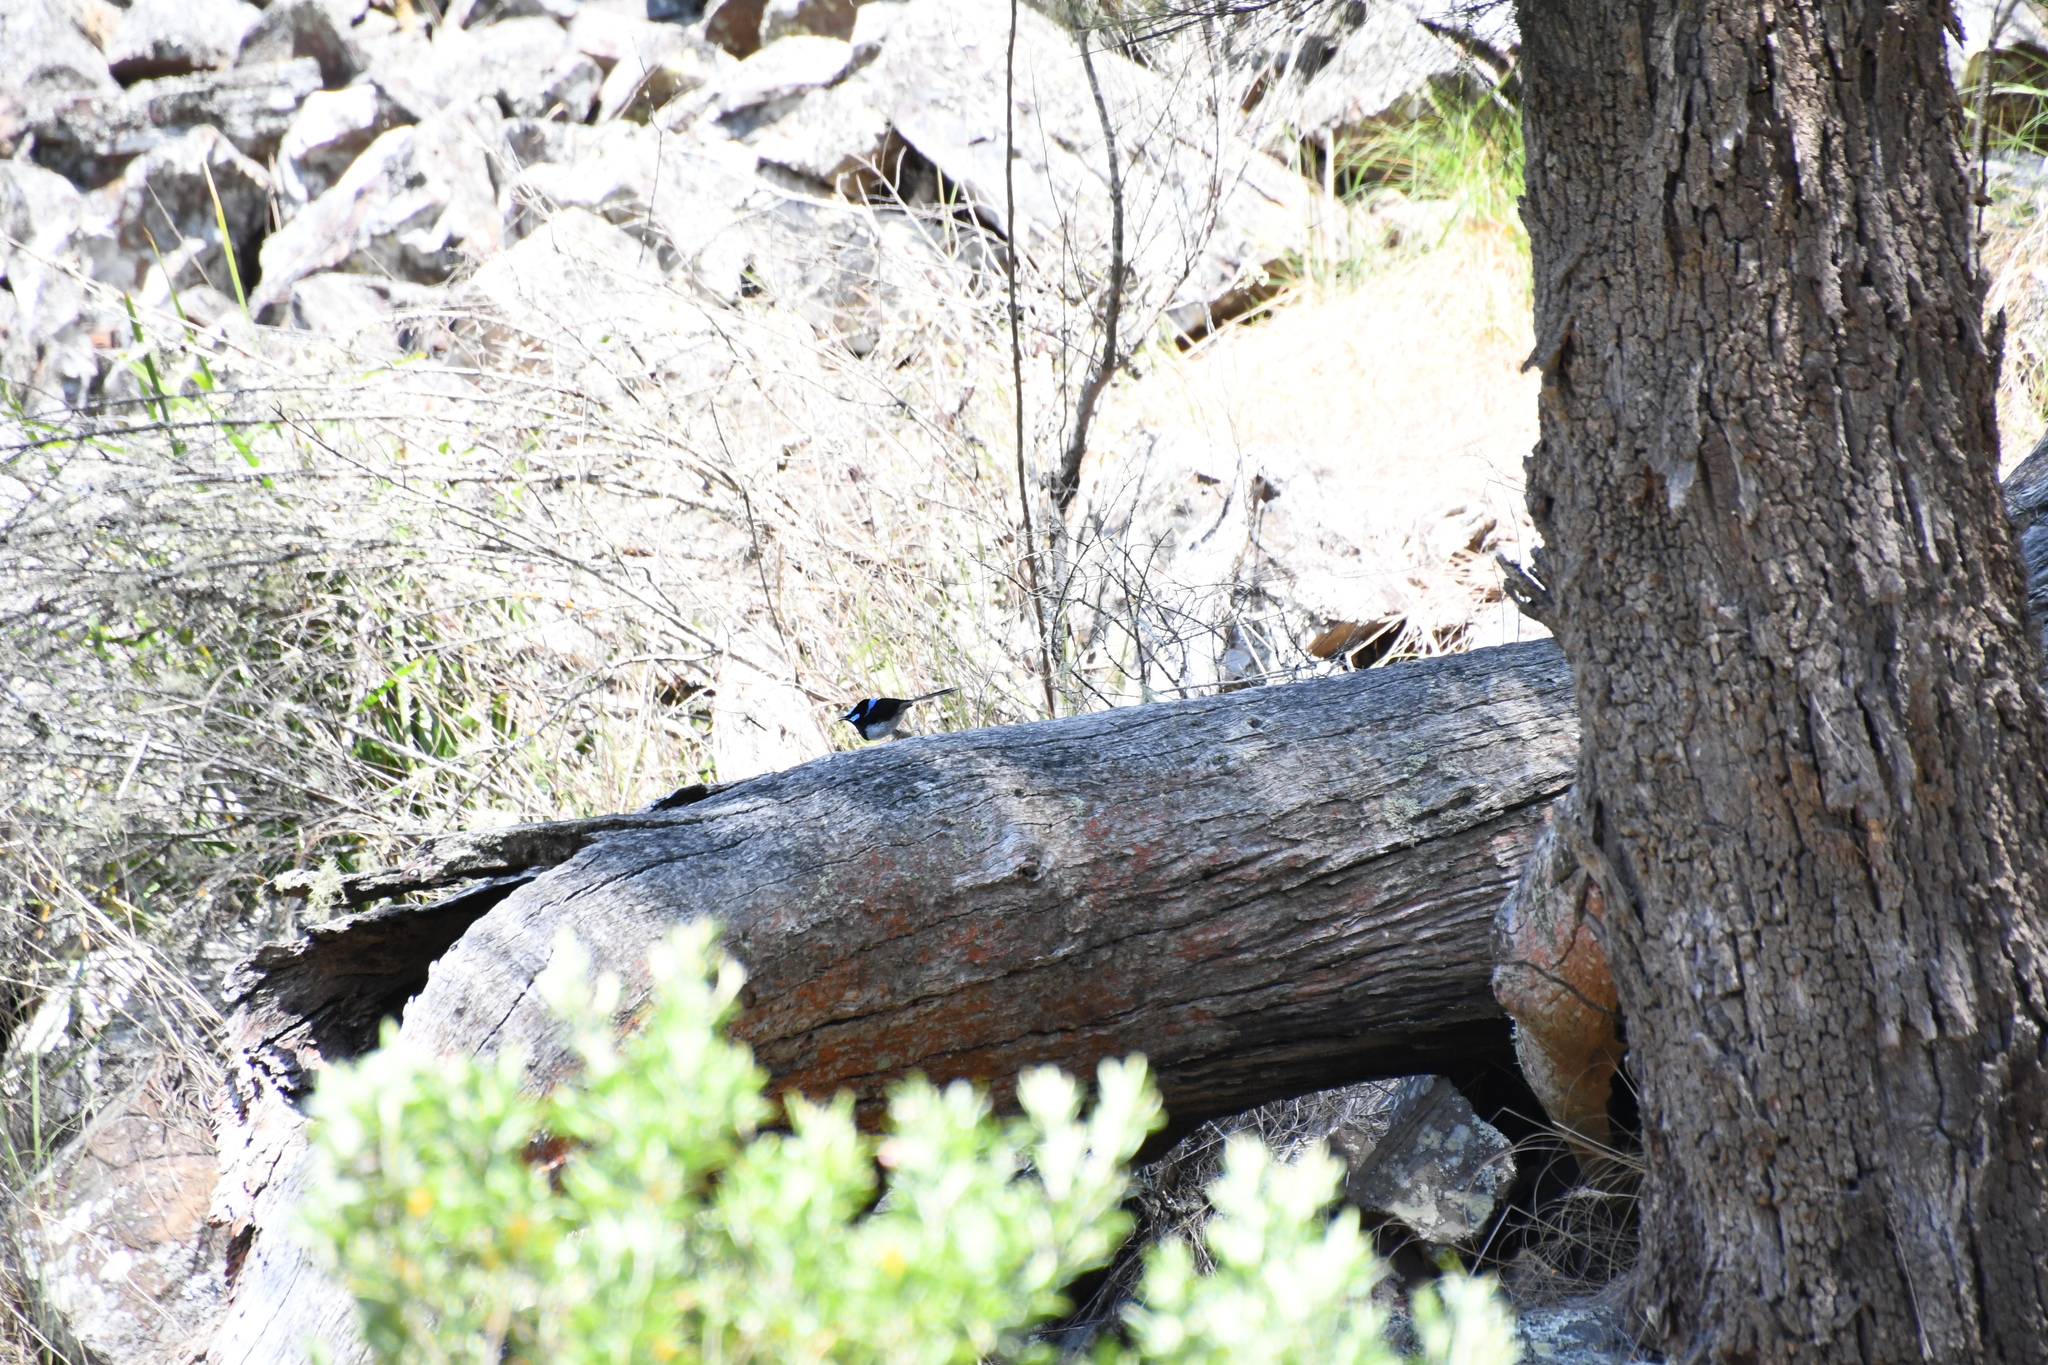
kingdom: Animalia
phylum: Chordata
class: Aves
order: Passeriformes
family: Maluridae
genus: Malurus
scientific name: Malurus cyaneus
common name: Superb fairywren
